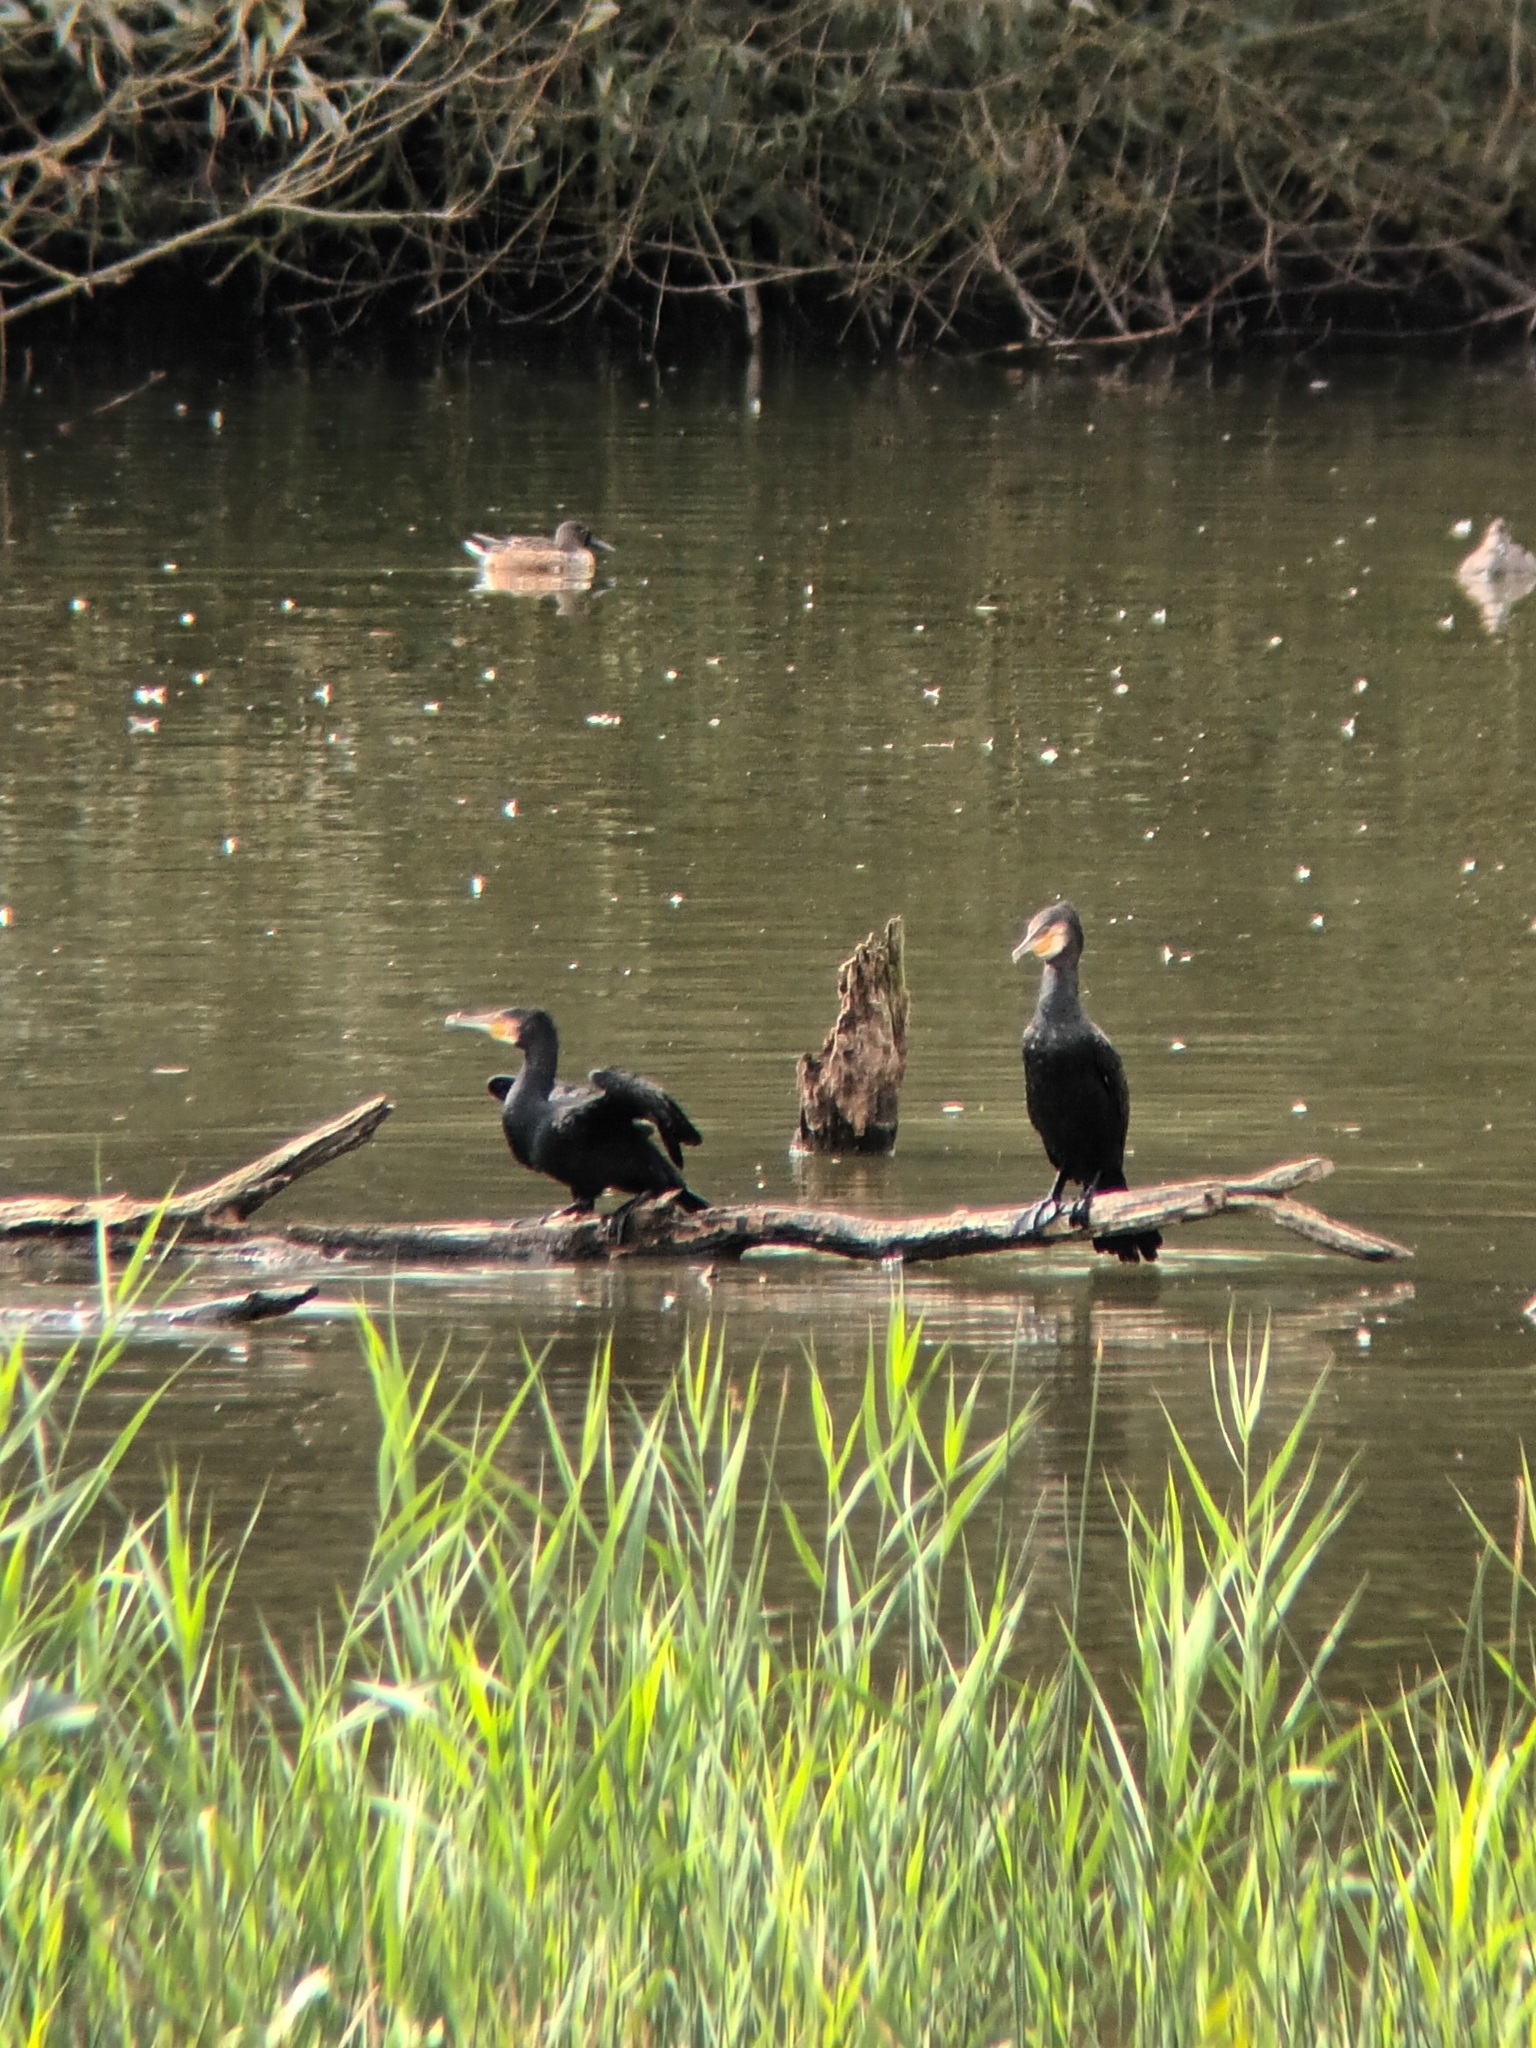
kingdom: Animalia
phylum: Chordata
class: Aves
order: Suliformes
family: Phalacrocoracidae
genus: Phalacrocorax
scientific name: Phalacrocorax carbo
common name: Great cormorant
